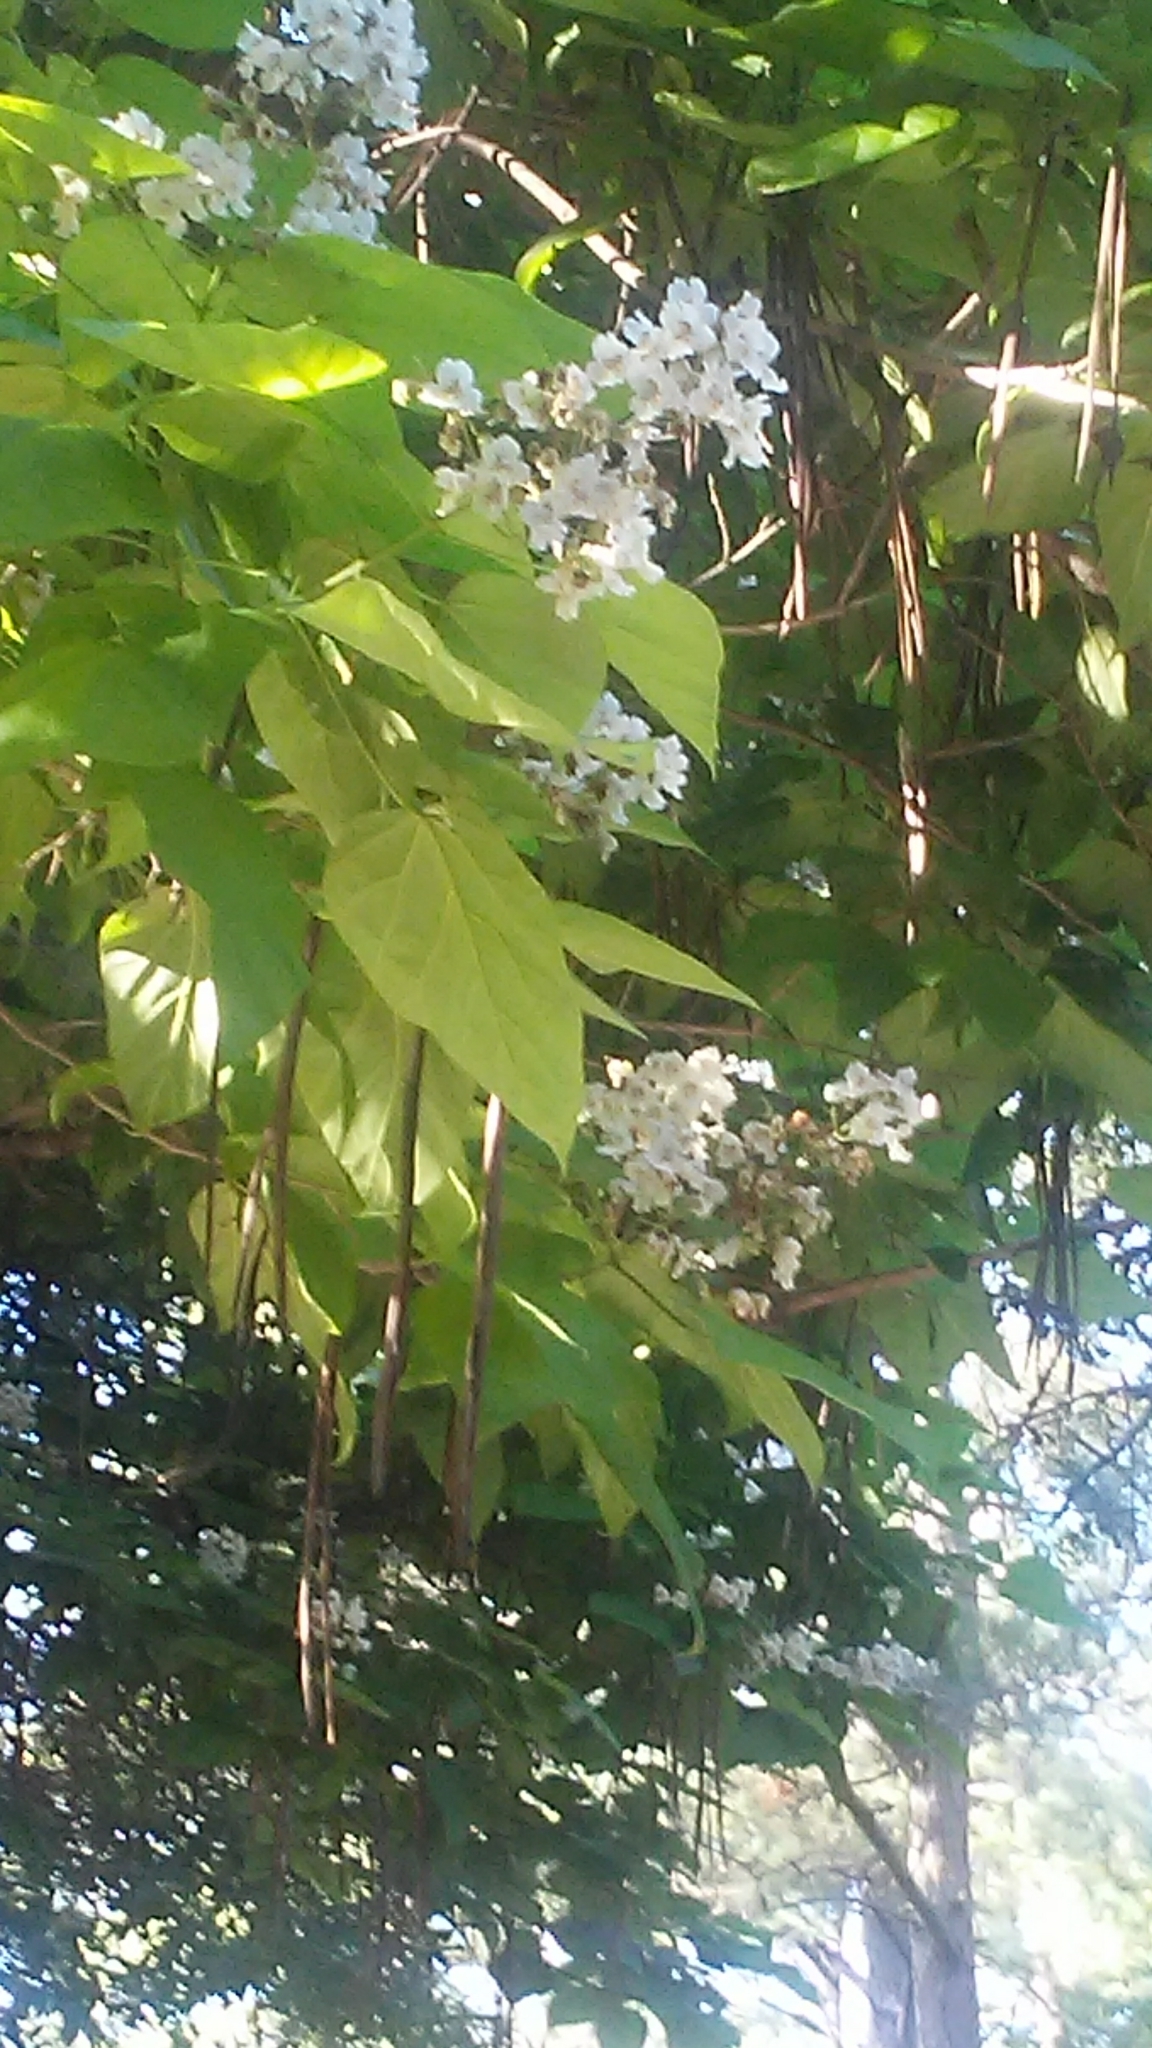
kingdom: Plantae
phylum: Tracheophyta
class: Magnoliopsida
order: Lamiales
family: Bignoniaceae
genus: Catalpa
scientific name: Catalpa bignonioides
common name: Southern catalpa
